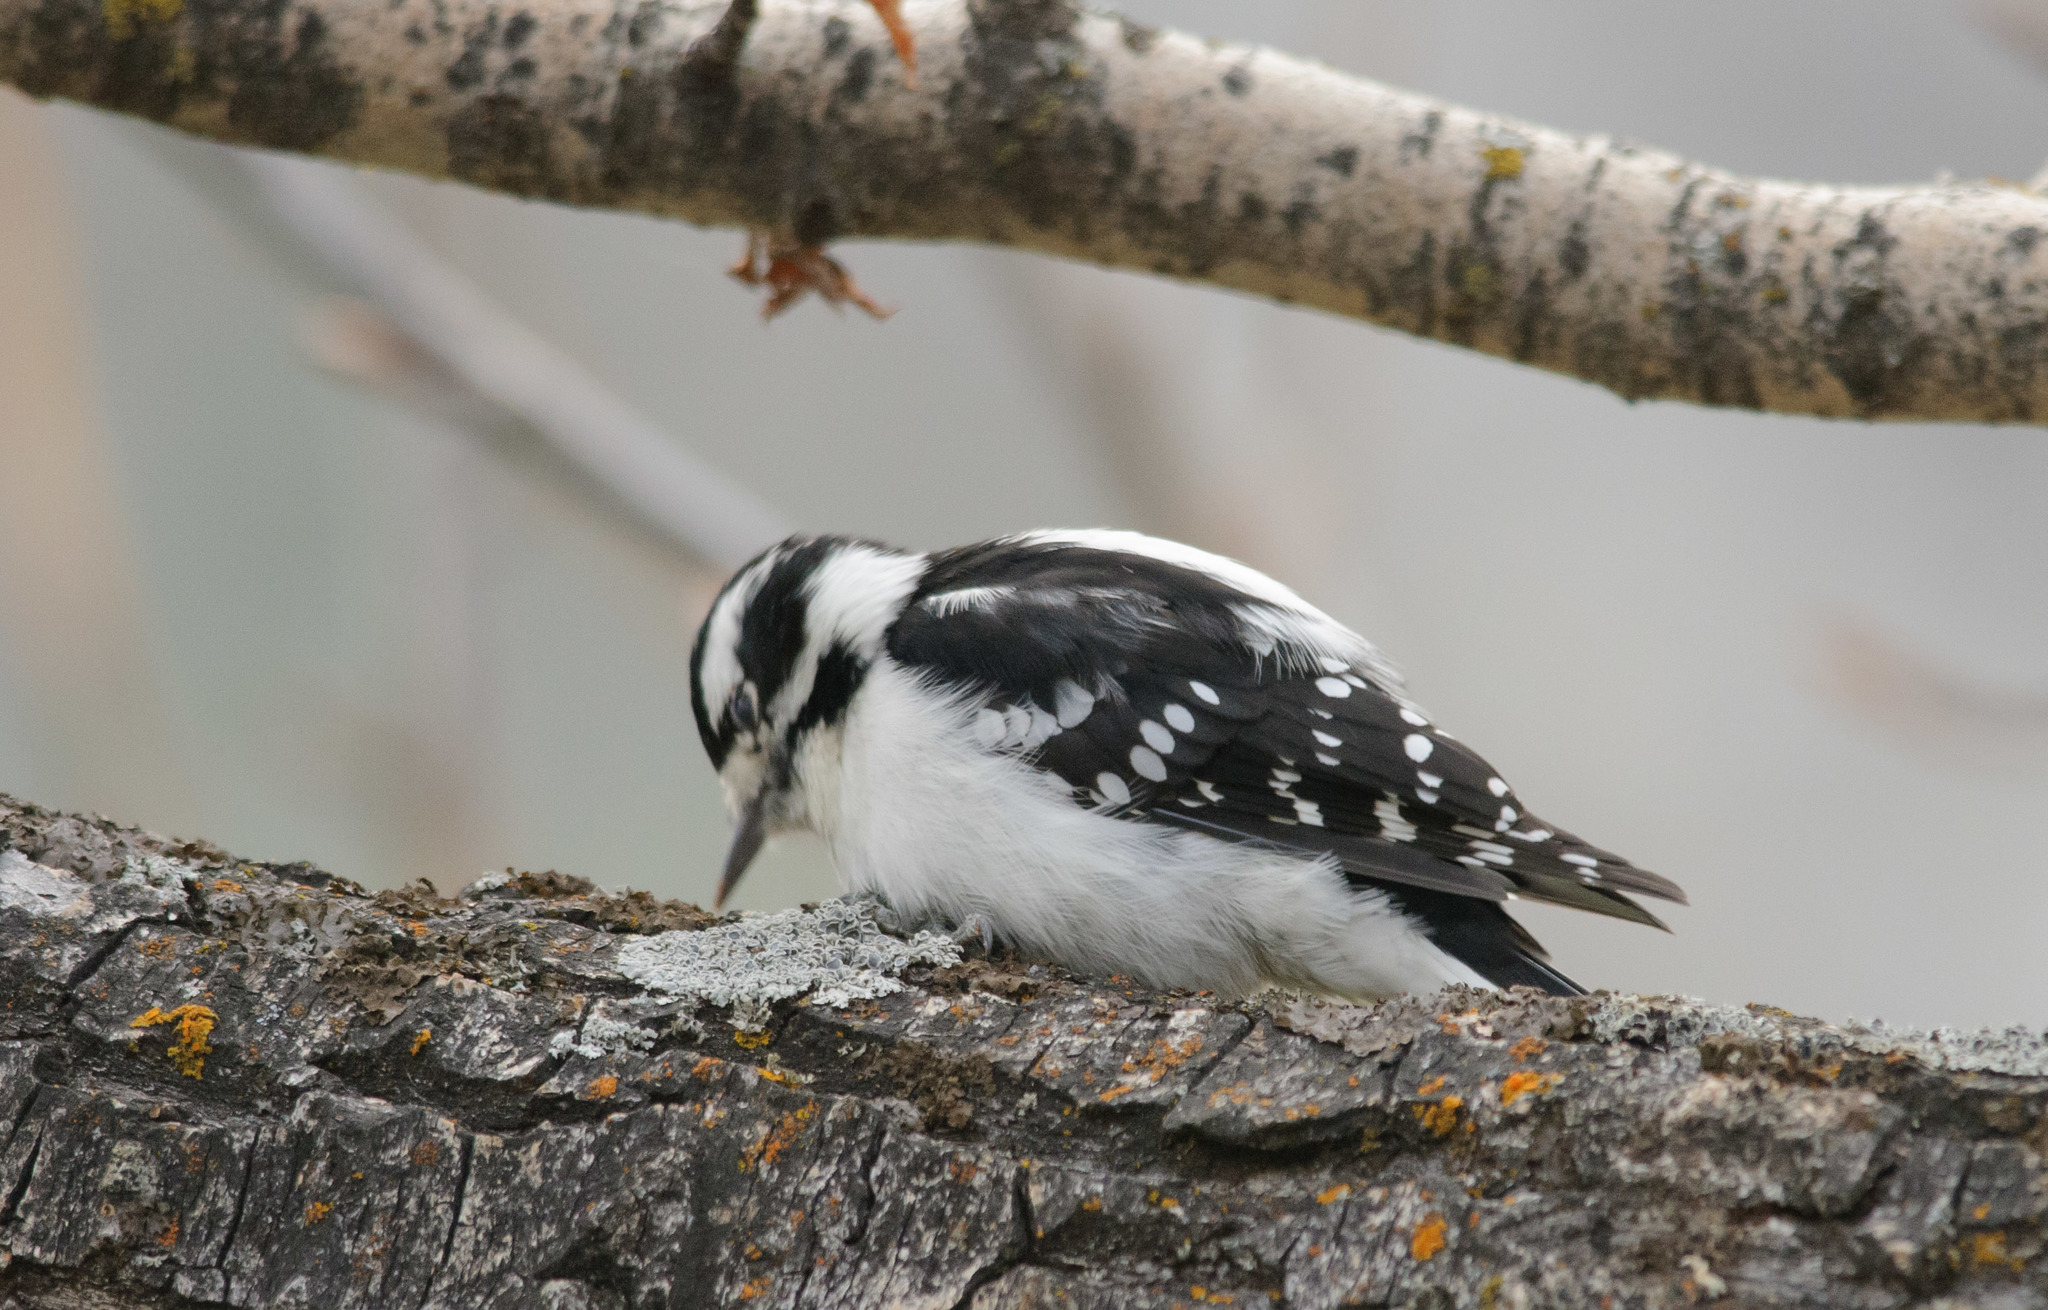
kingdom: Animalia
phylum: Chordata
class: Aves
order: Piciformes
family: Picidae
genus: Dryobates
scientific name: Dryobates pubescens
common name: Downy woodpecker
